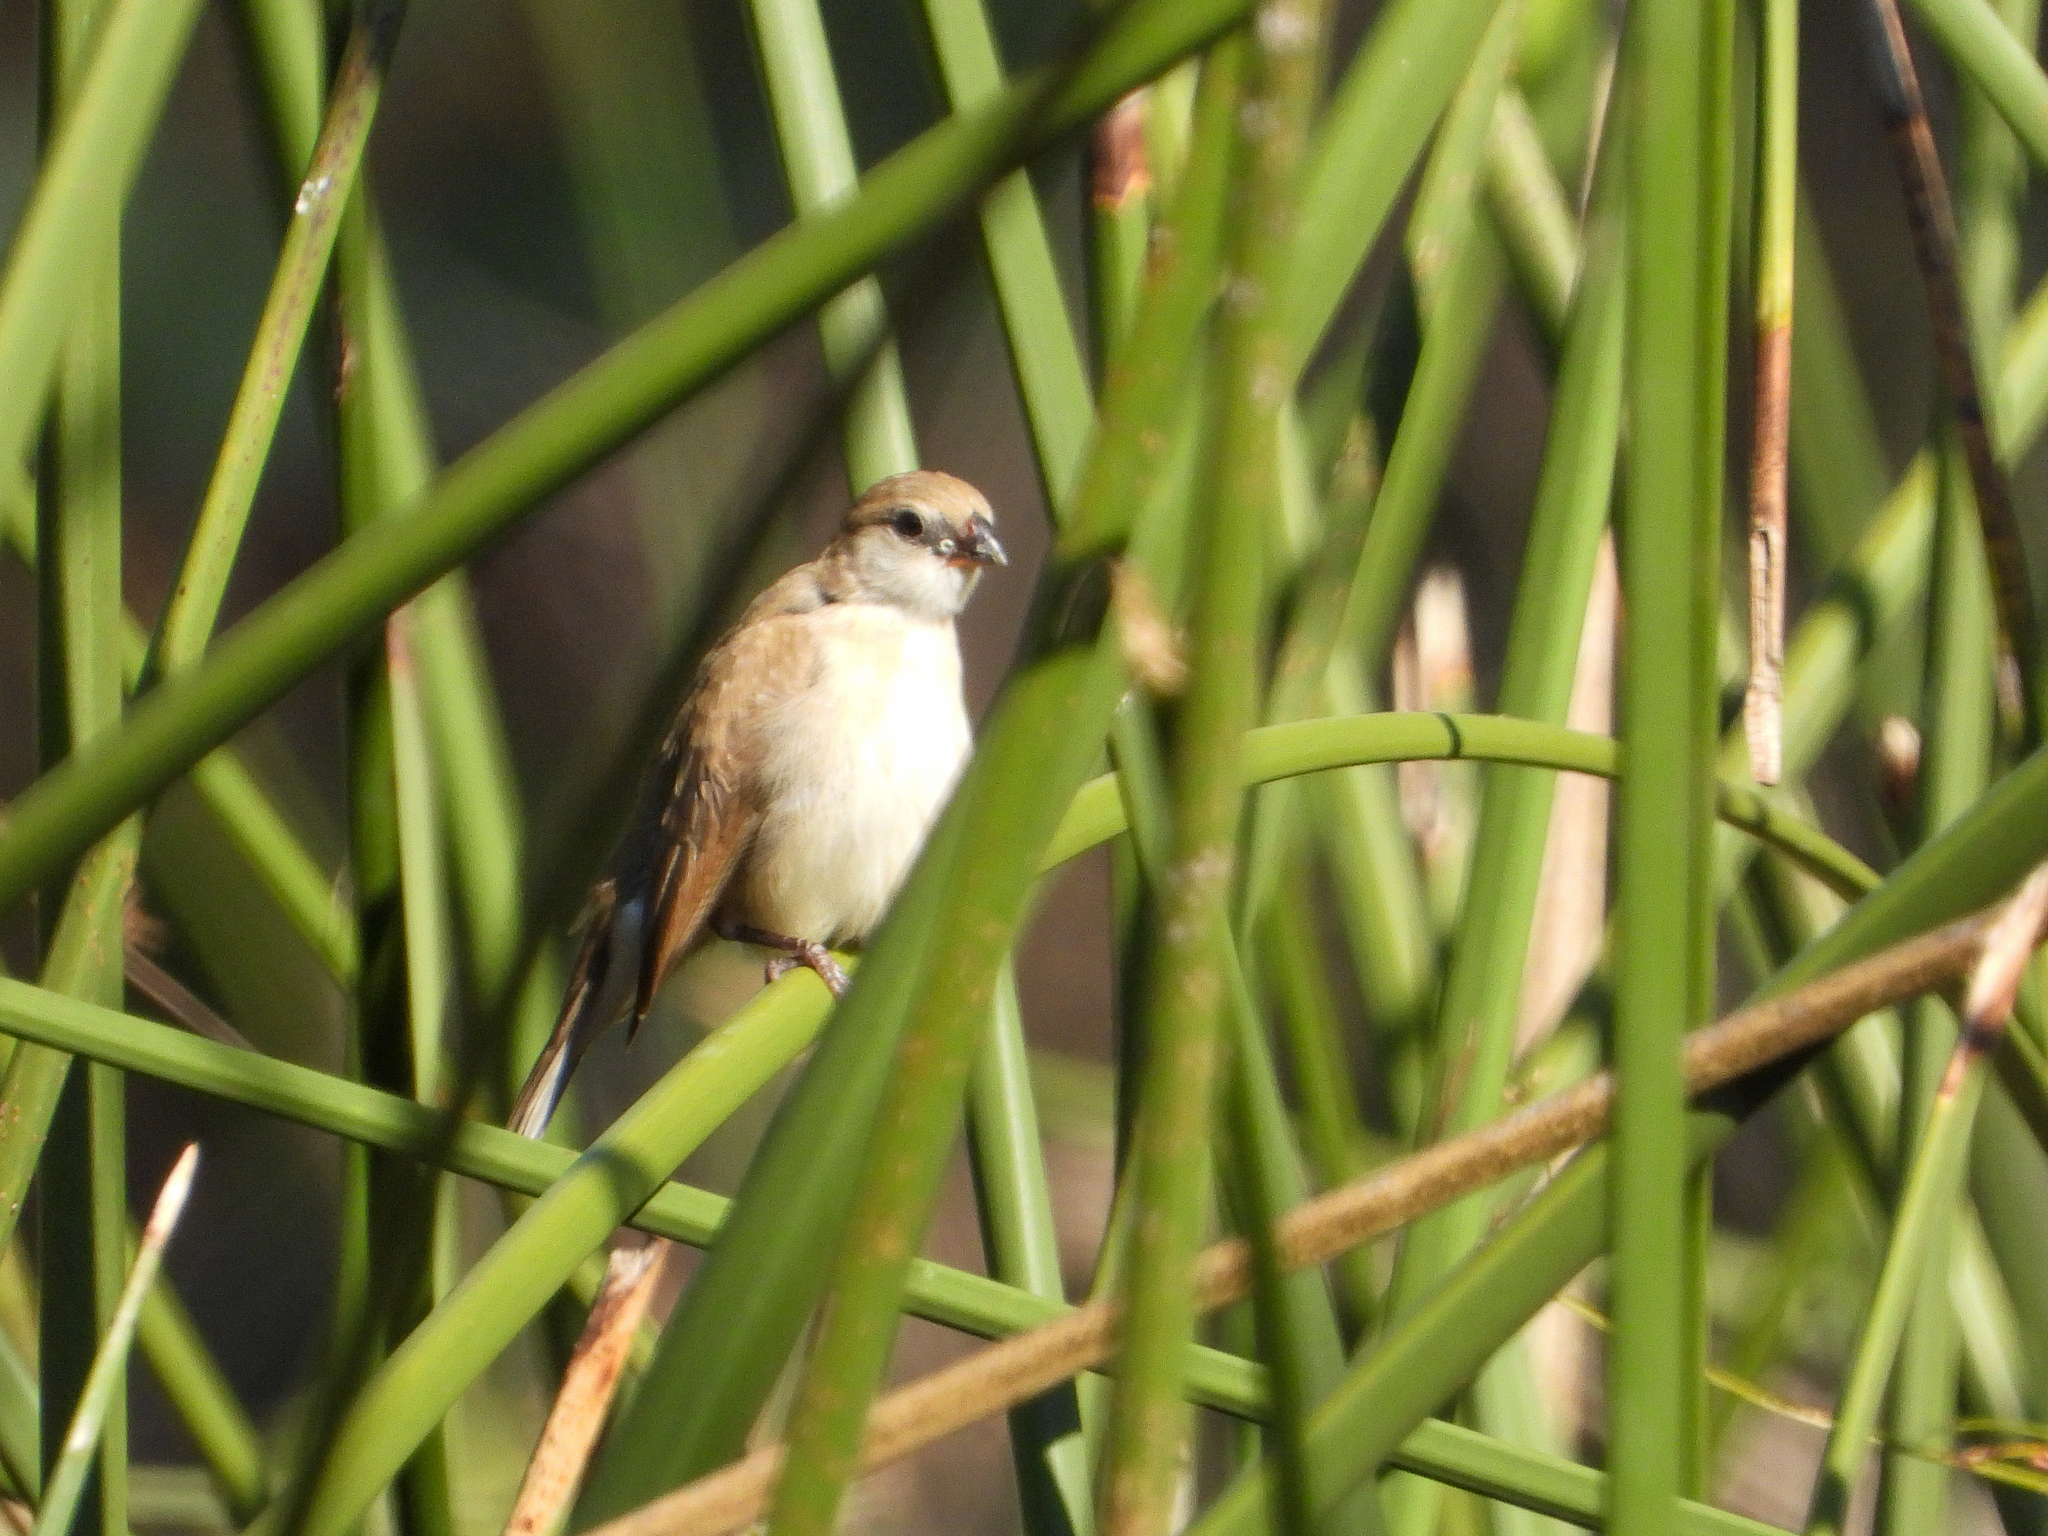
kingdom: Animalia
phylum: Chordata
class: Aves
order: Passeriformes
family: Viduidae
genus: Vidua
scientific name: Vidua macroura
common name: Pin-tailed whydah
